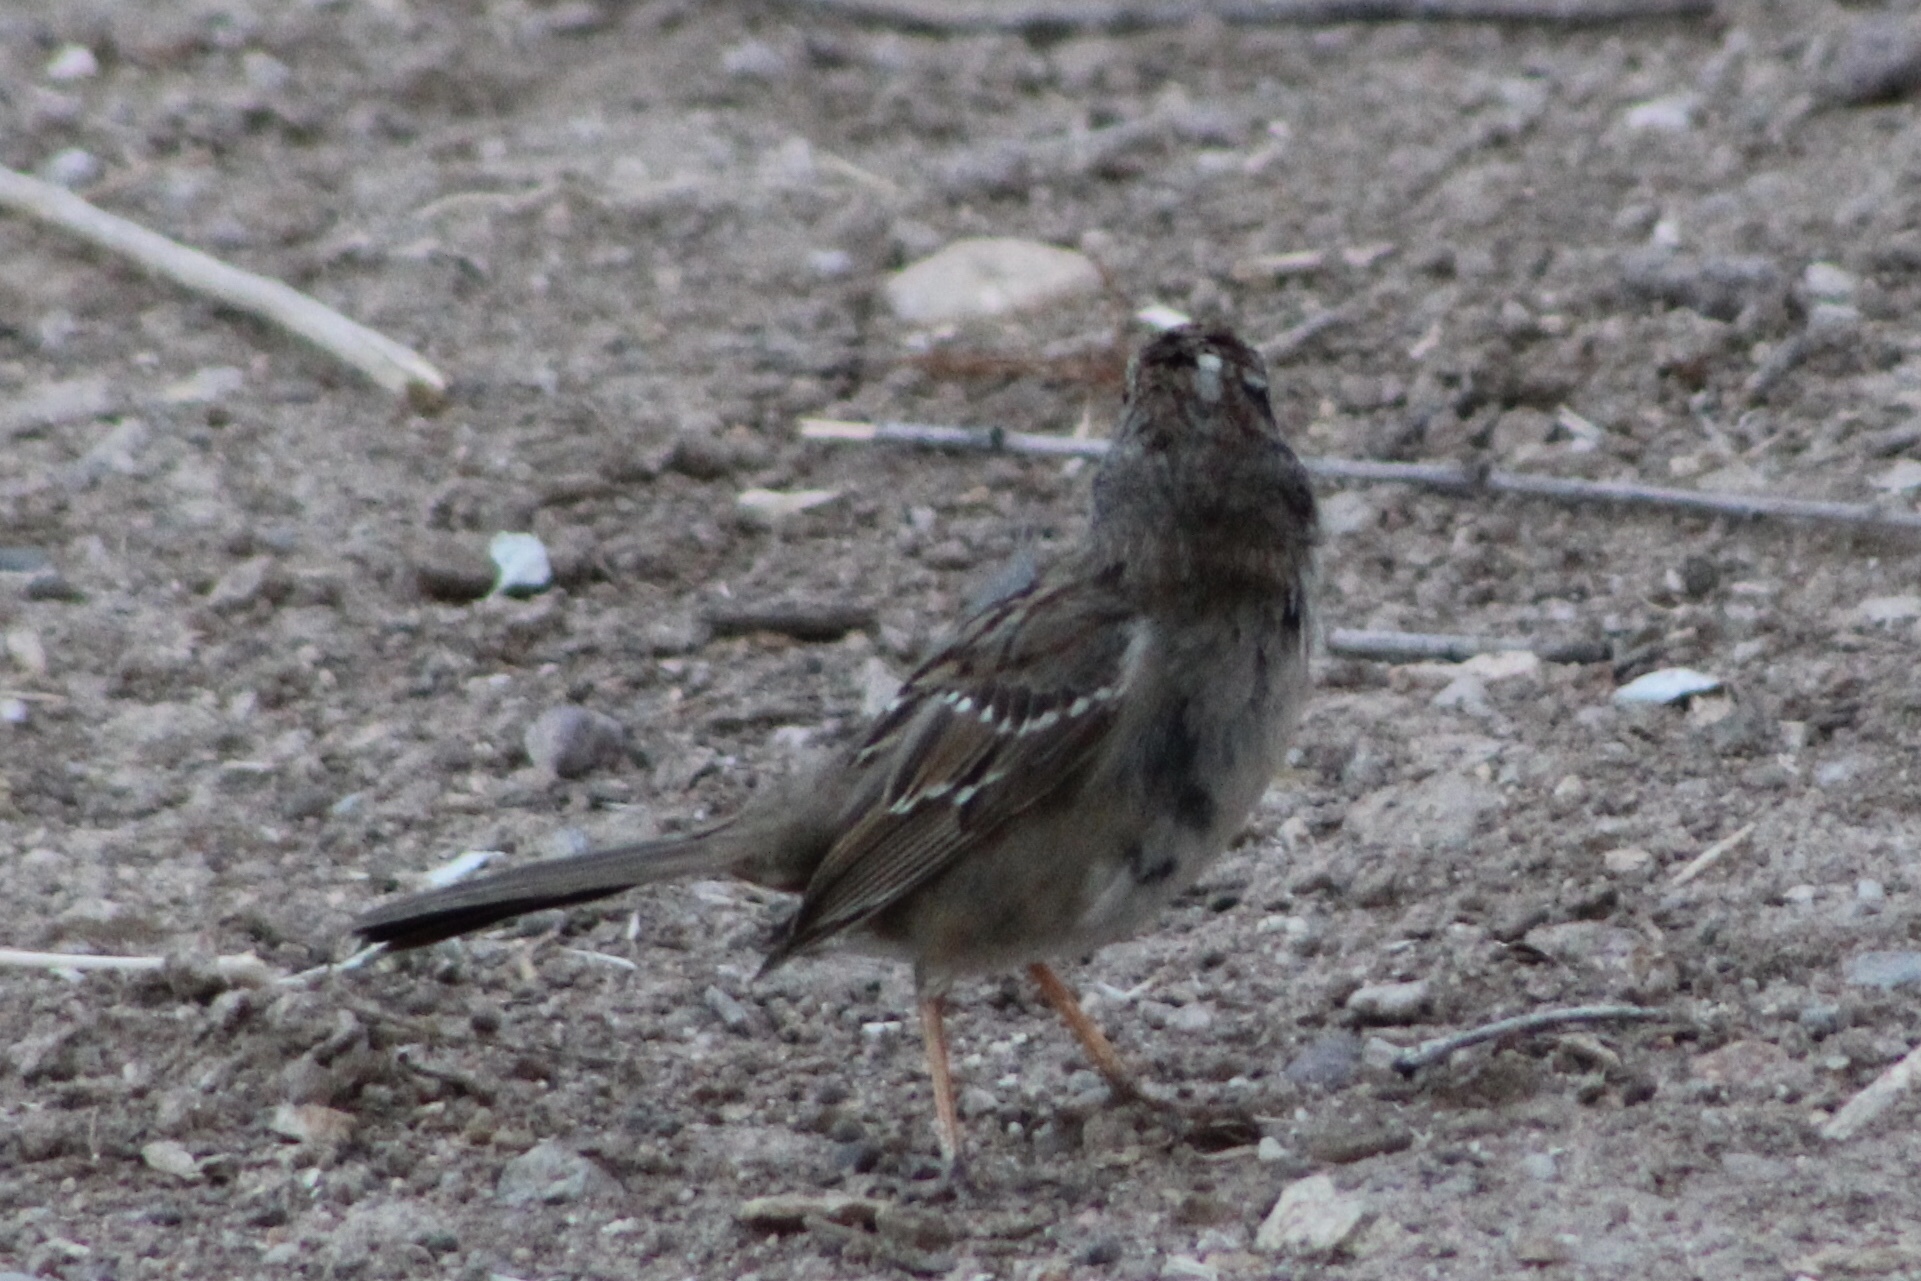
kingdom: Animalia
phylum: Chordata
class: Aves
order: Passeriformes
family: Passerellidae
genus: Zonotrichia
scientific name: Zonotrichia leucophrys
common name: White-crowned sparrow
